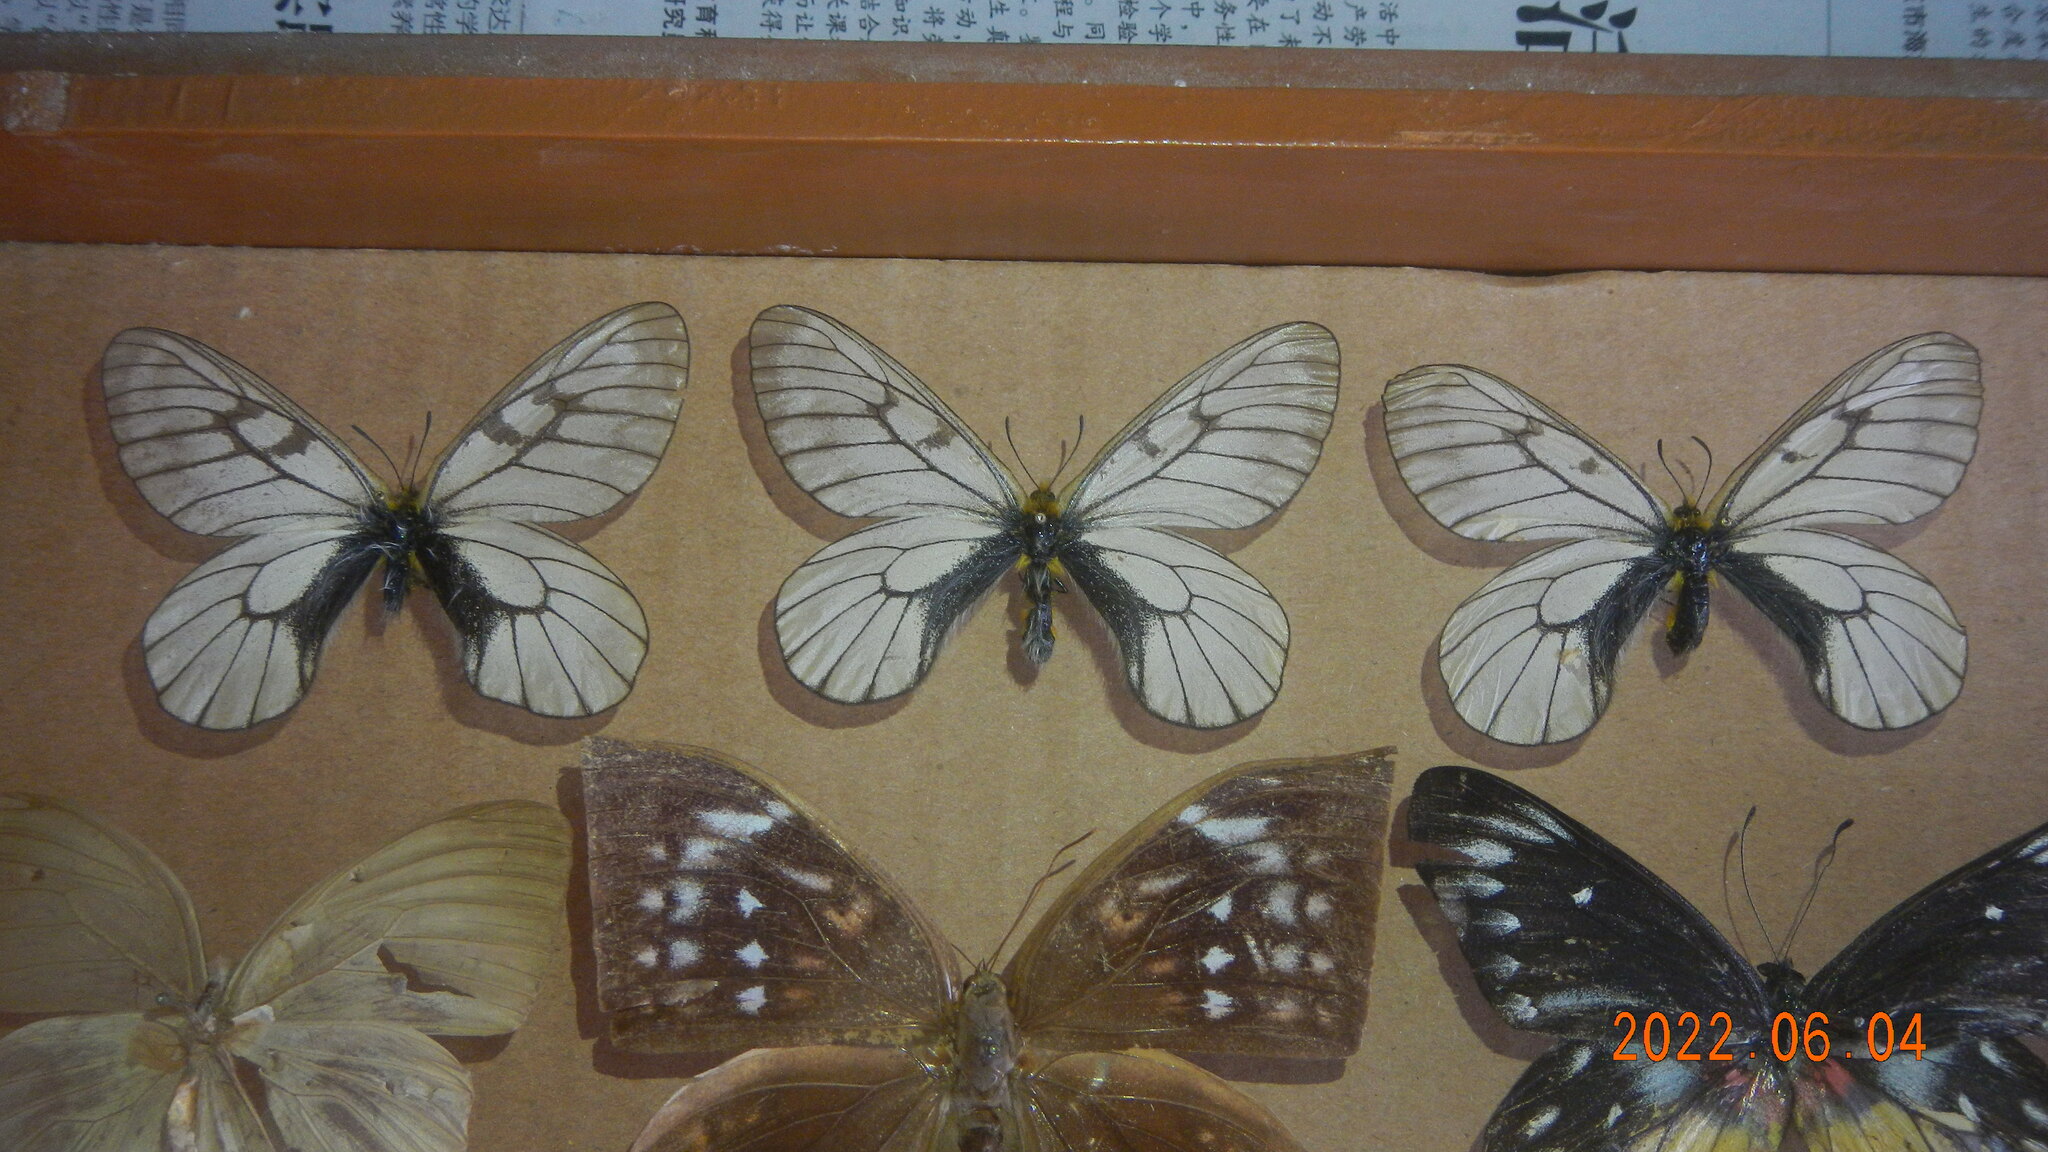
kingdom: Animalia
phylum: Arthropoda
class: Insecta
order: Lepidoptera
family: Papilionidae
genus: Parnassius
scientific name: Parnassius glacialis
